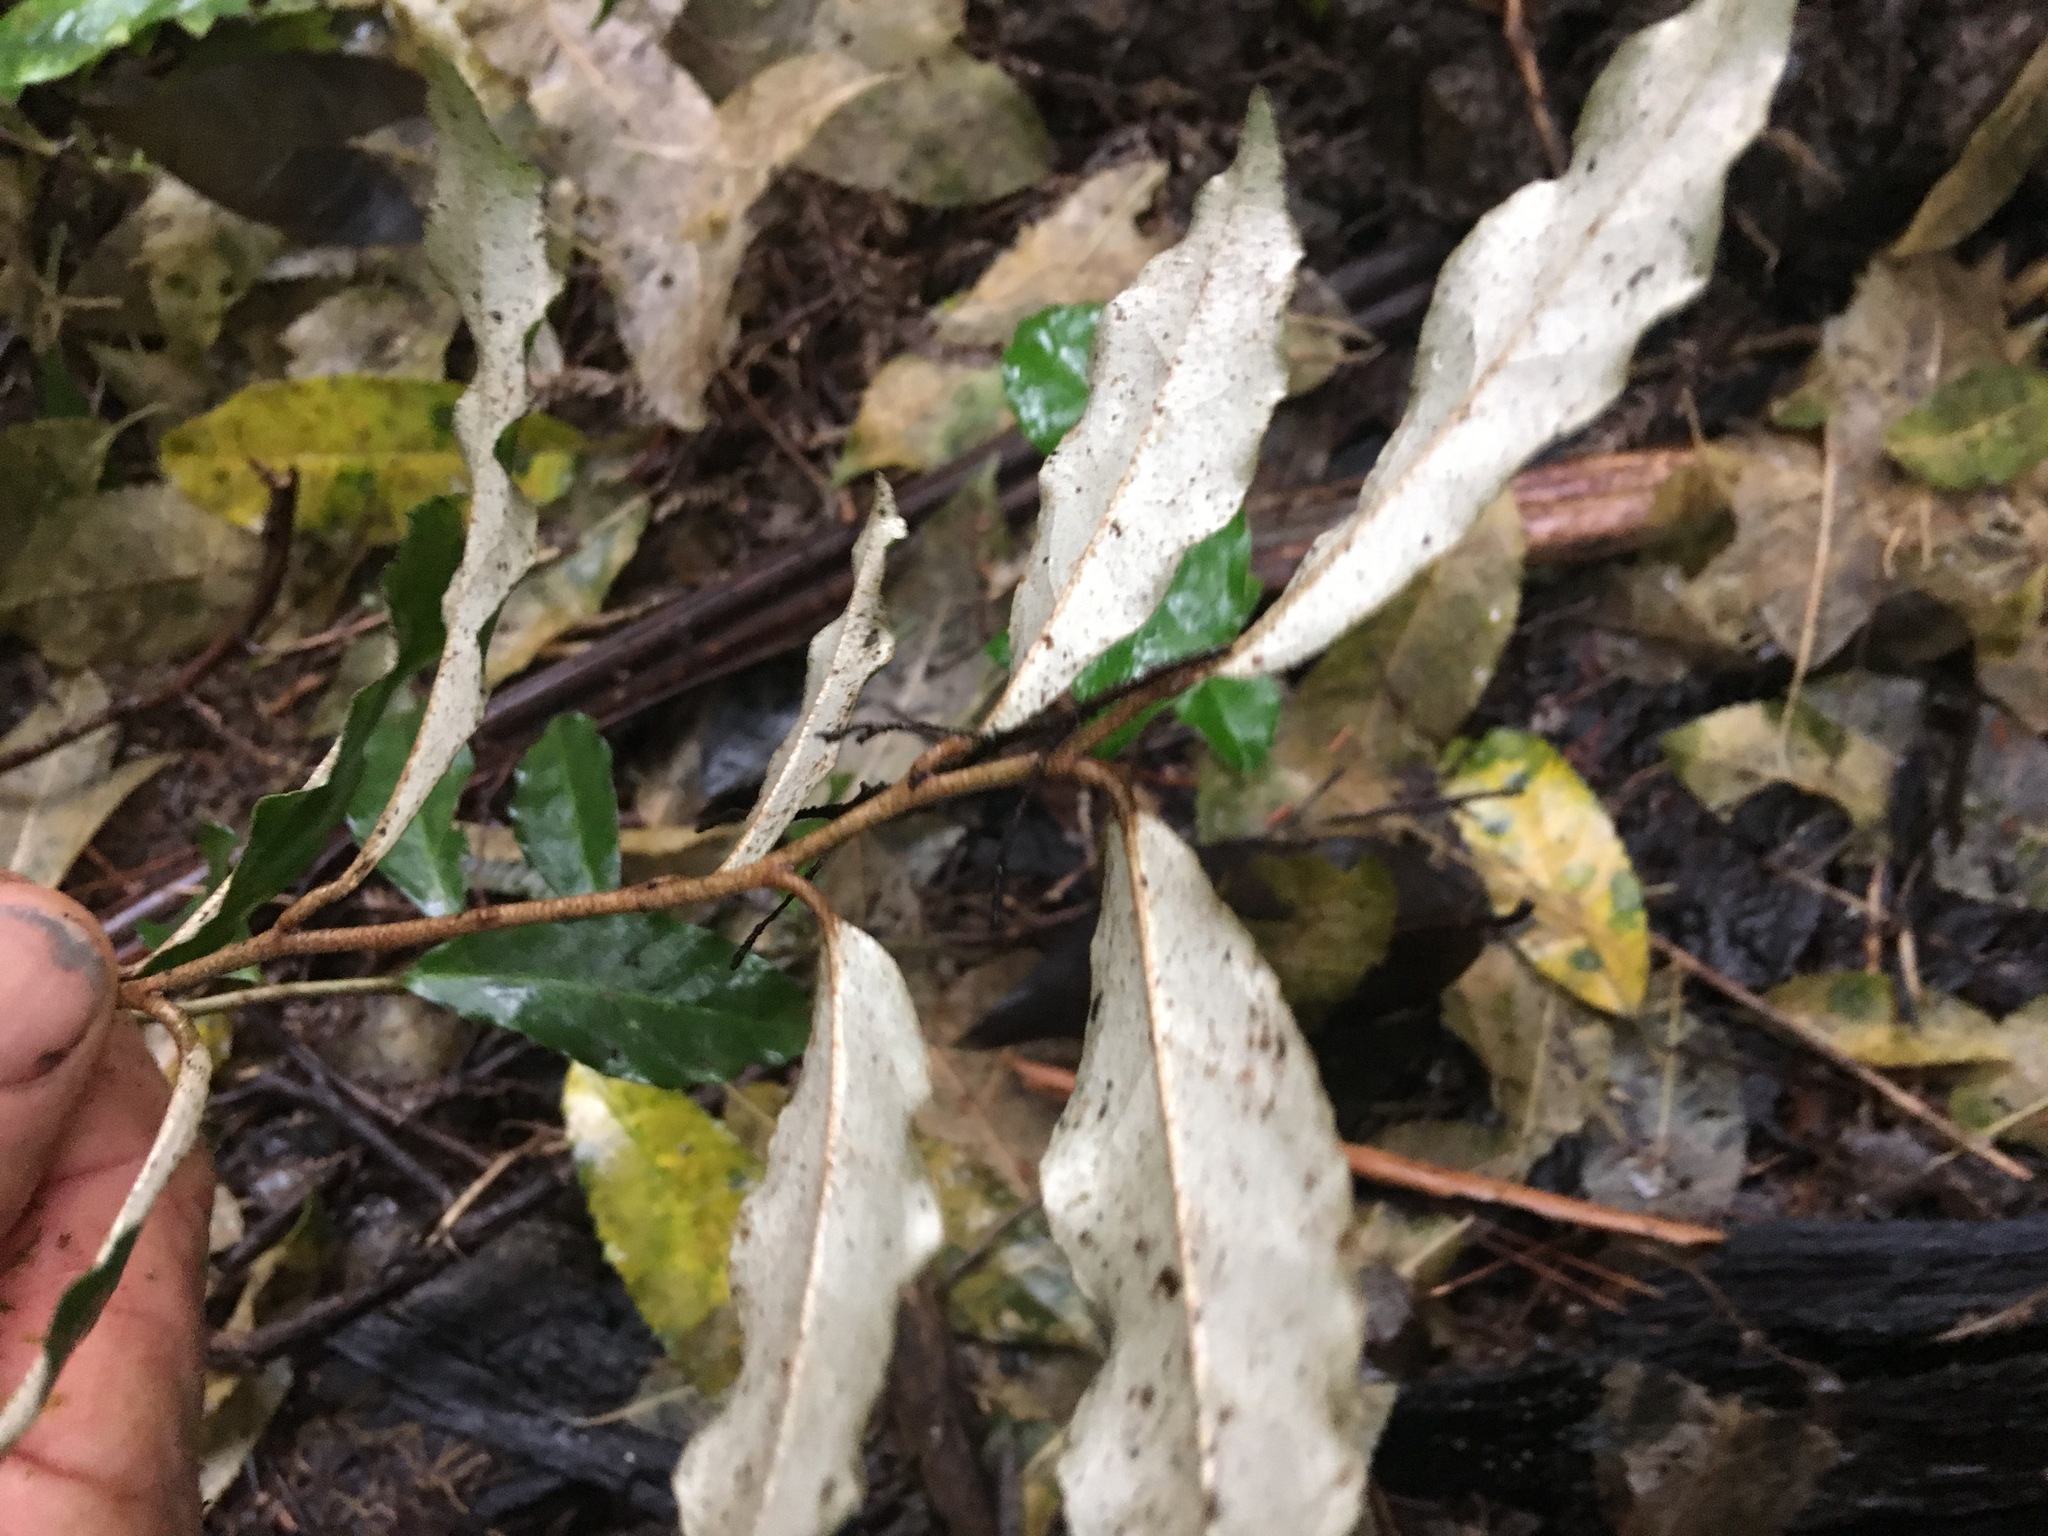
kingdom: Plantae
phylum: Tracheophyta
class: Magnoliopsida
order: Rosales
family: Elaeagnaceae
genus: Elaeagnus
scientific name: Elaeagnus reflexa
